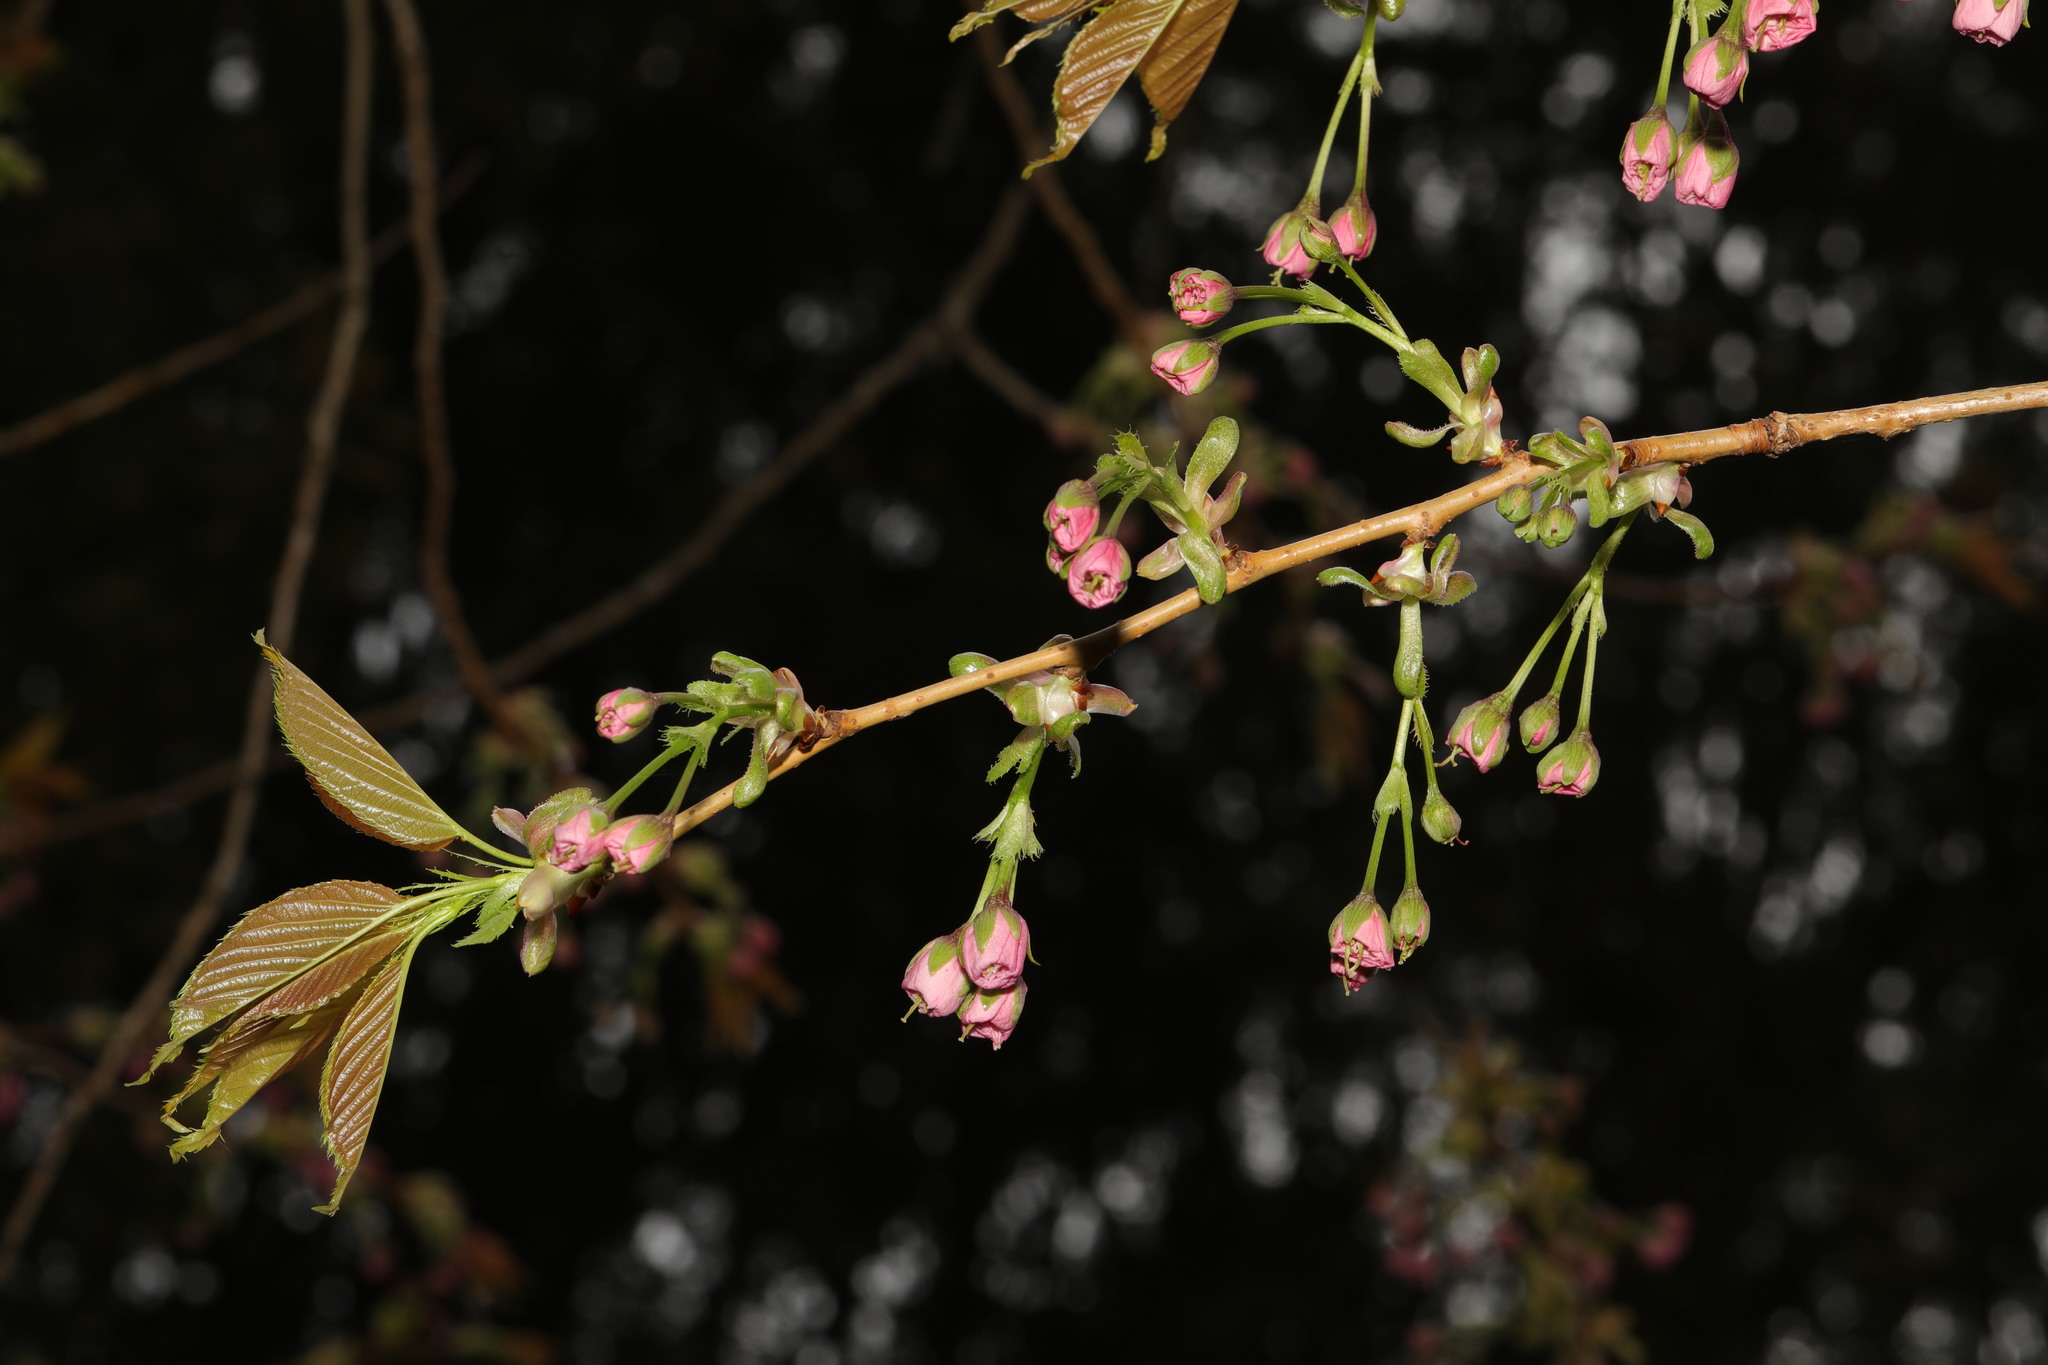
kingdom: Plantae
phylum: Tracheophyta
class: Magnoliopsida
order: Rosales
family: Rosaceae
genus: Prunus
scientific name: Prunus serrulata
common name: Japanese cherry
